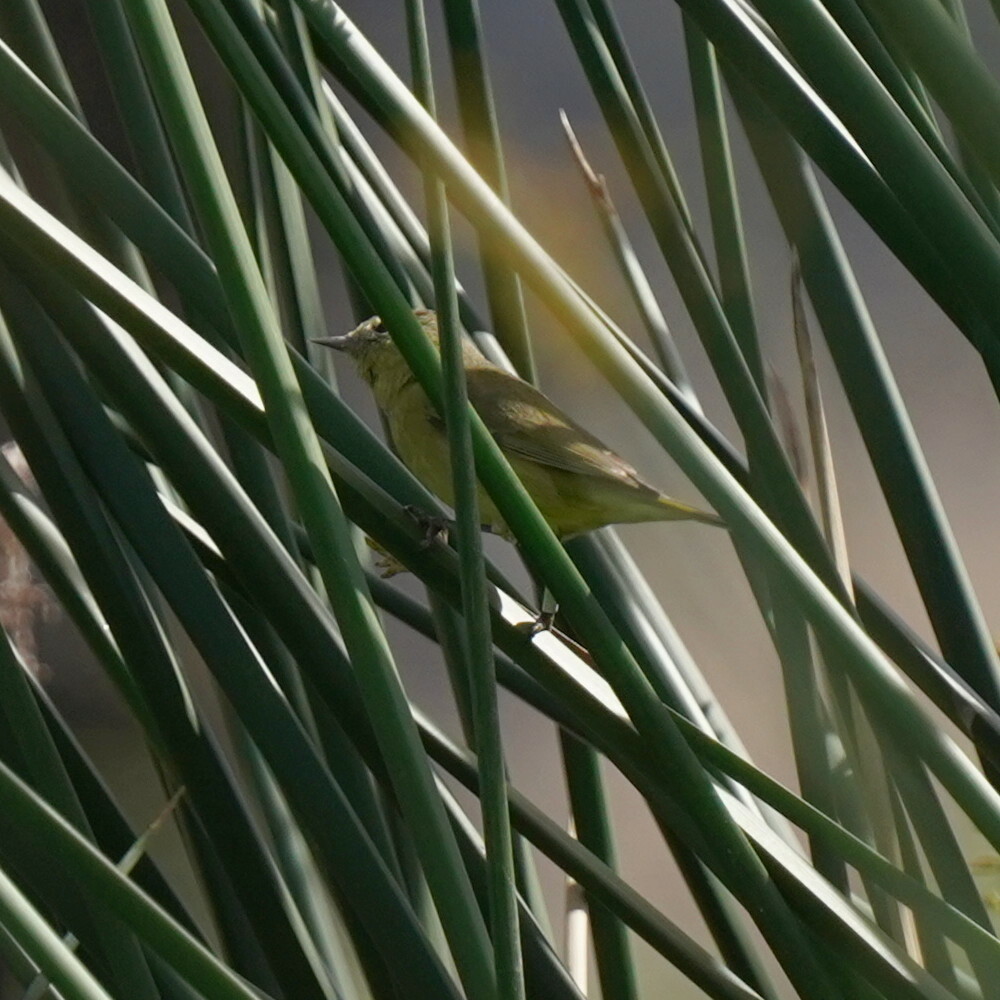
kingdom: Animalia
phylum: Chordata
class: Aves
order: Passeriformes
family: Parulidae
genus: Leiothlypis
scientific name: Leiothlypis celata
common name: Orange-crowned warbler
